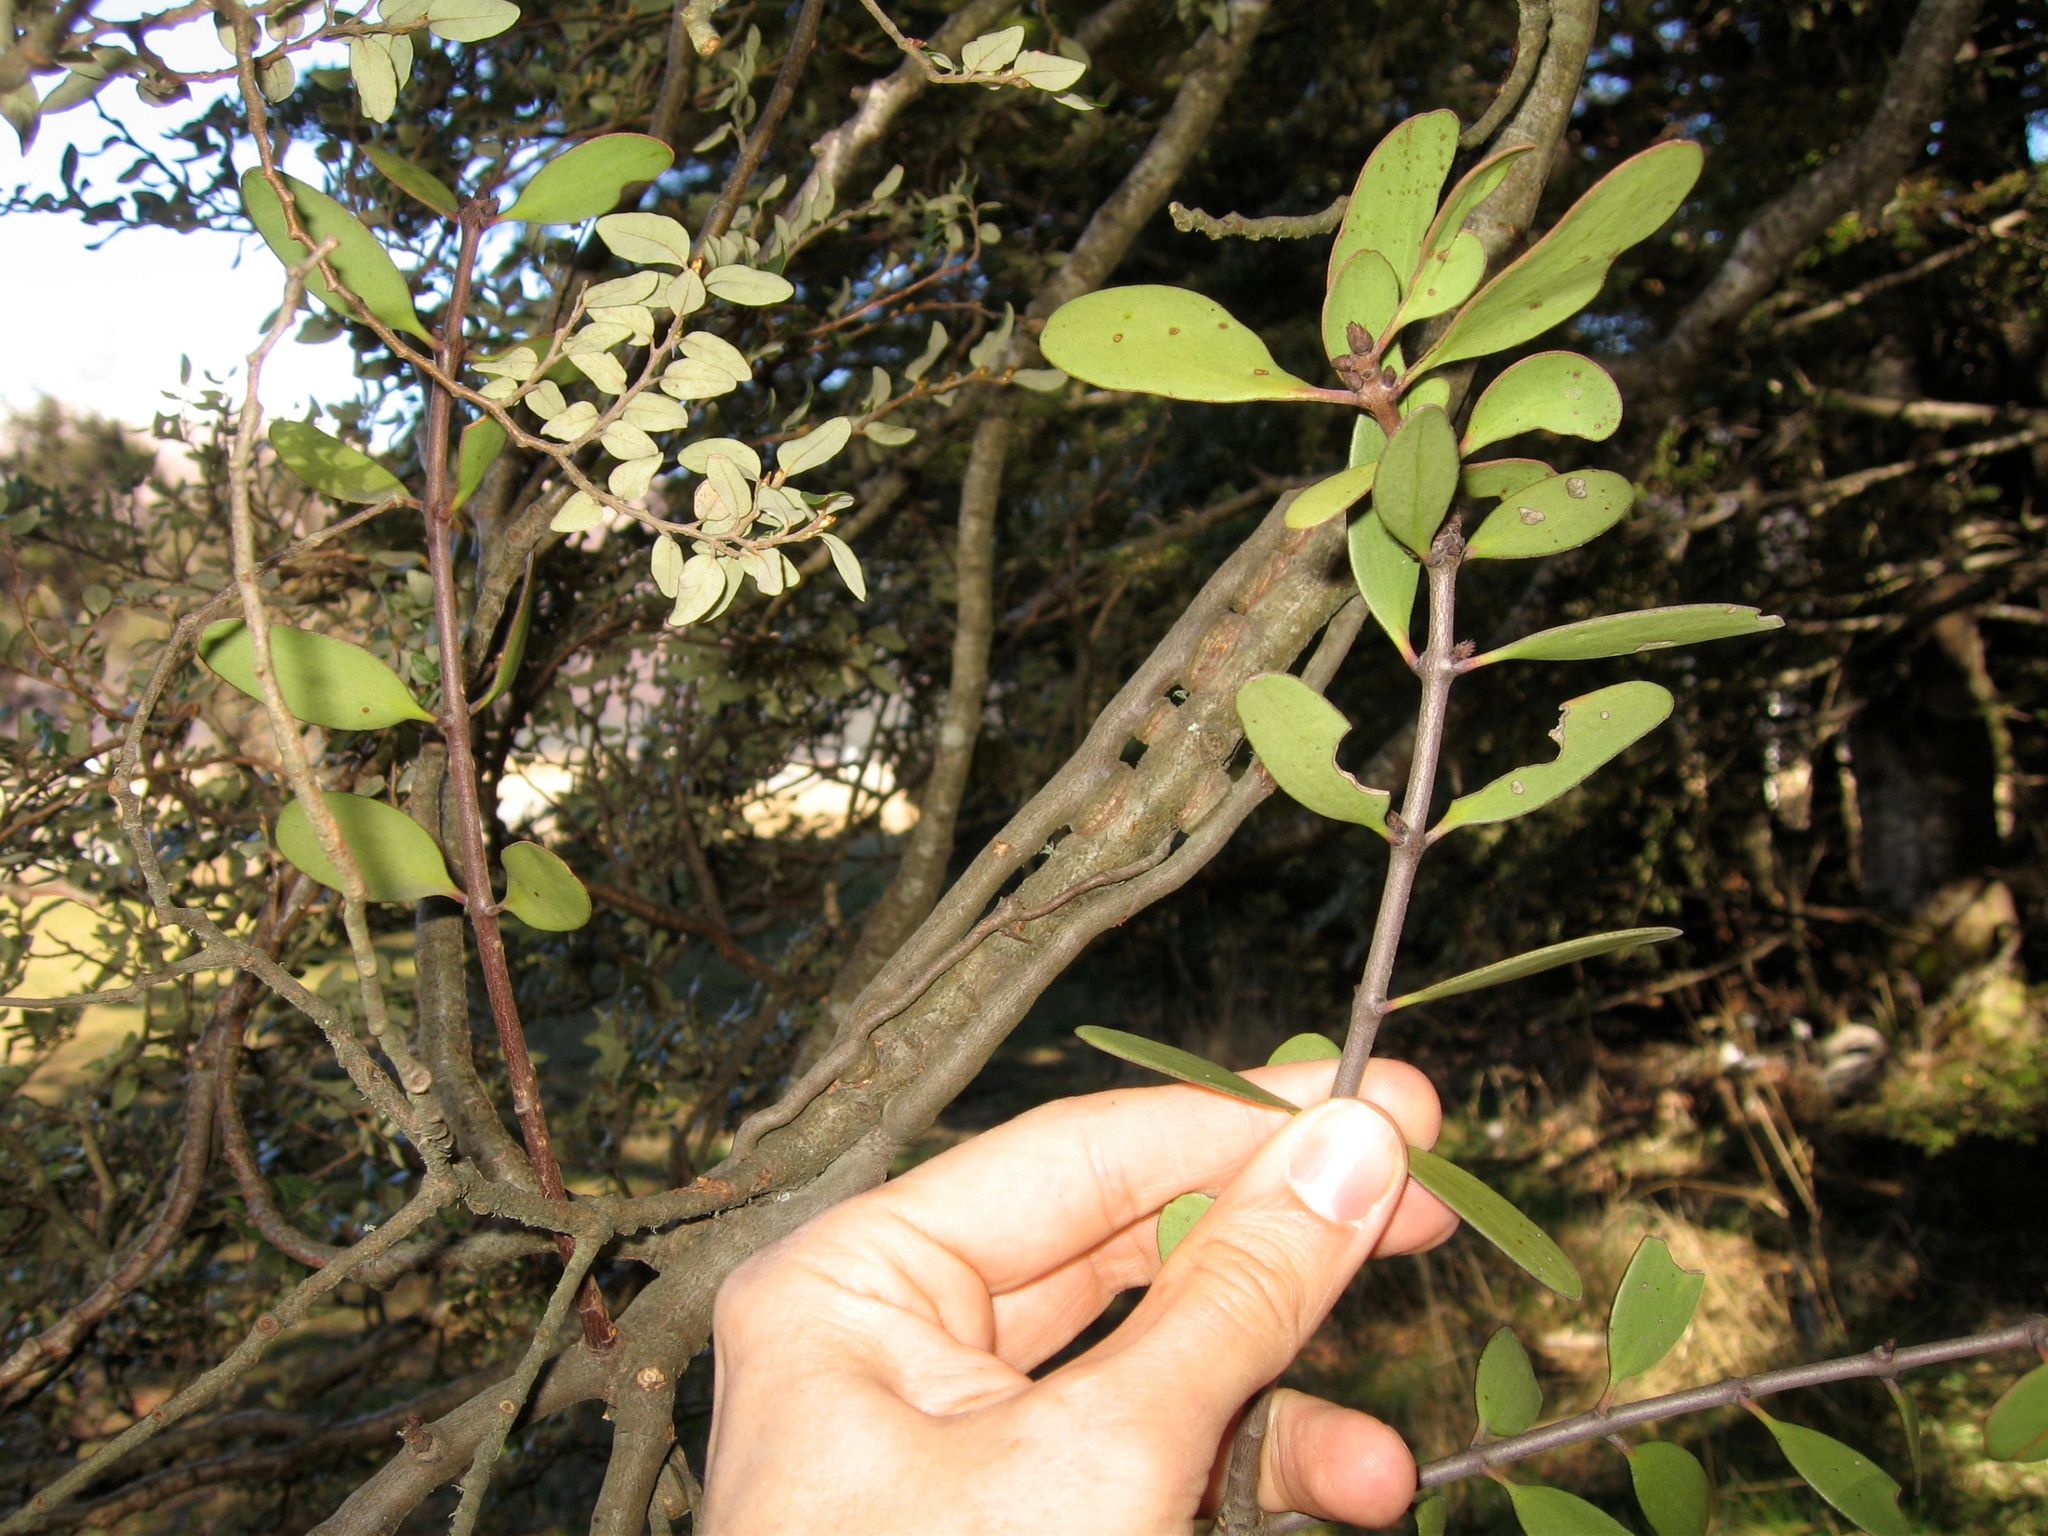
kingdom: Plantae
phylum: Tracheophyta
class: Magnoliopsida
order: Santalales
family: Loranthaceae
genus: Alepis
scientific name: Alepis flavida
